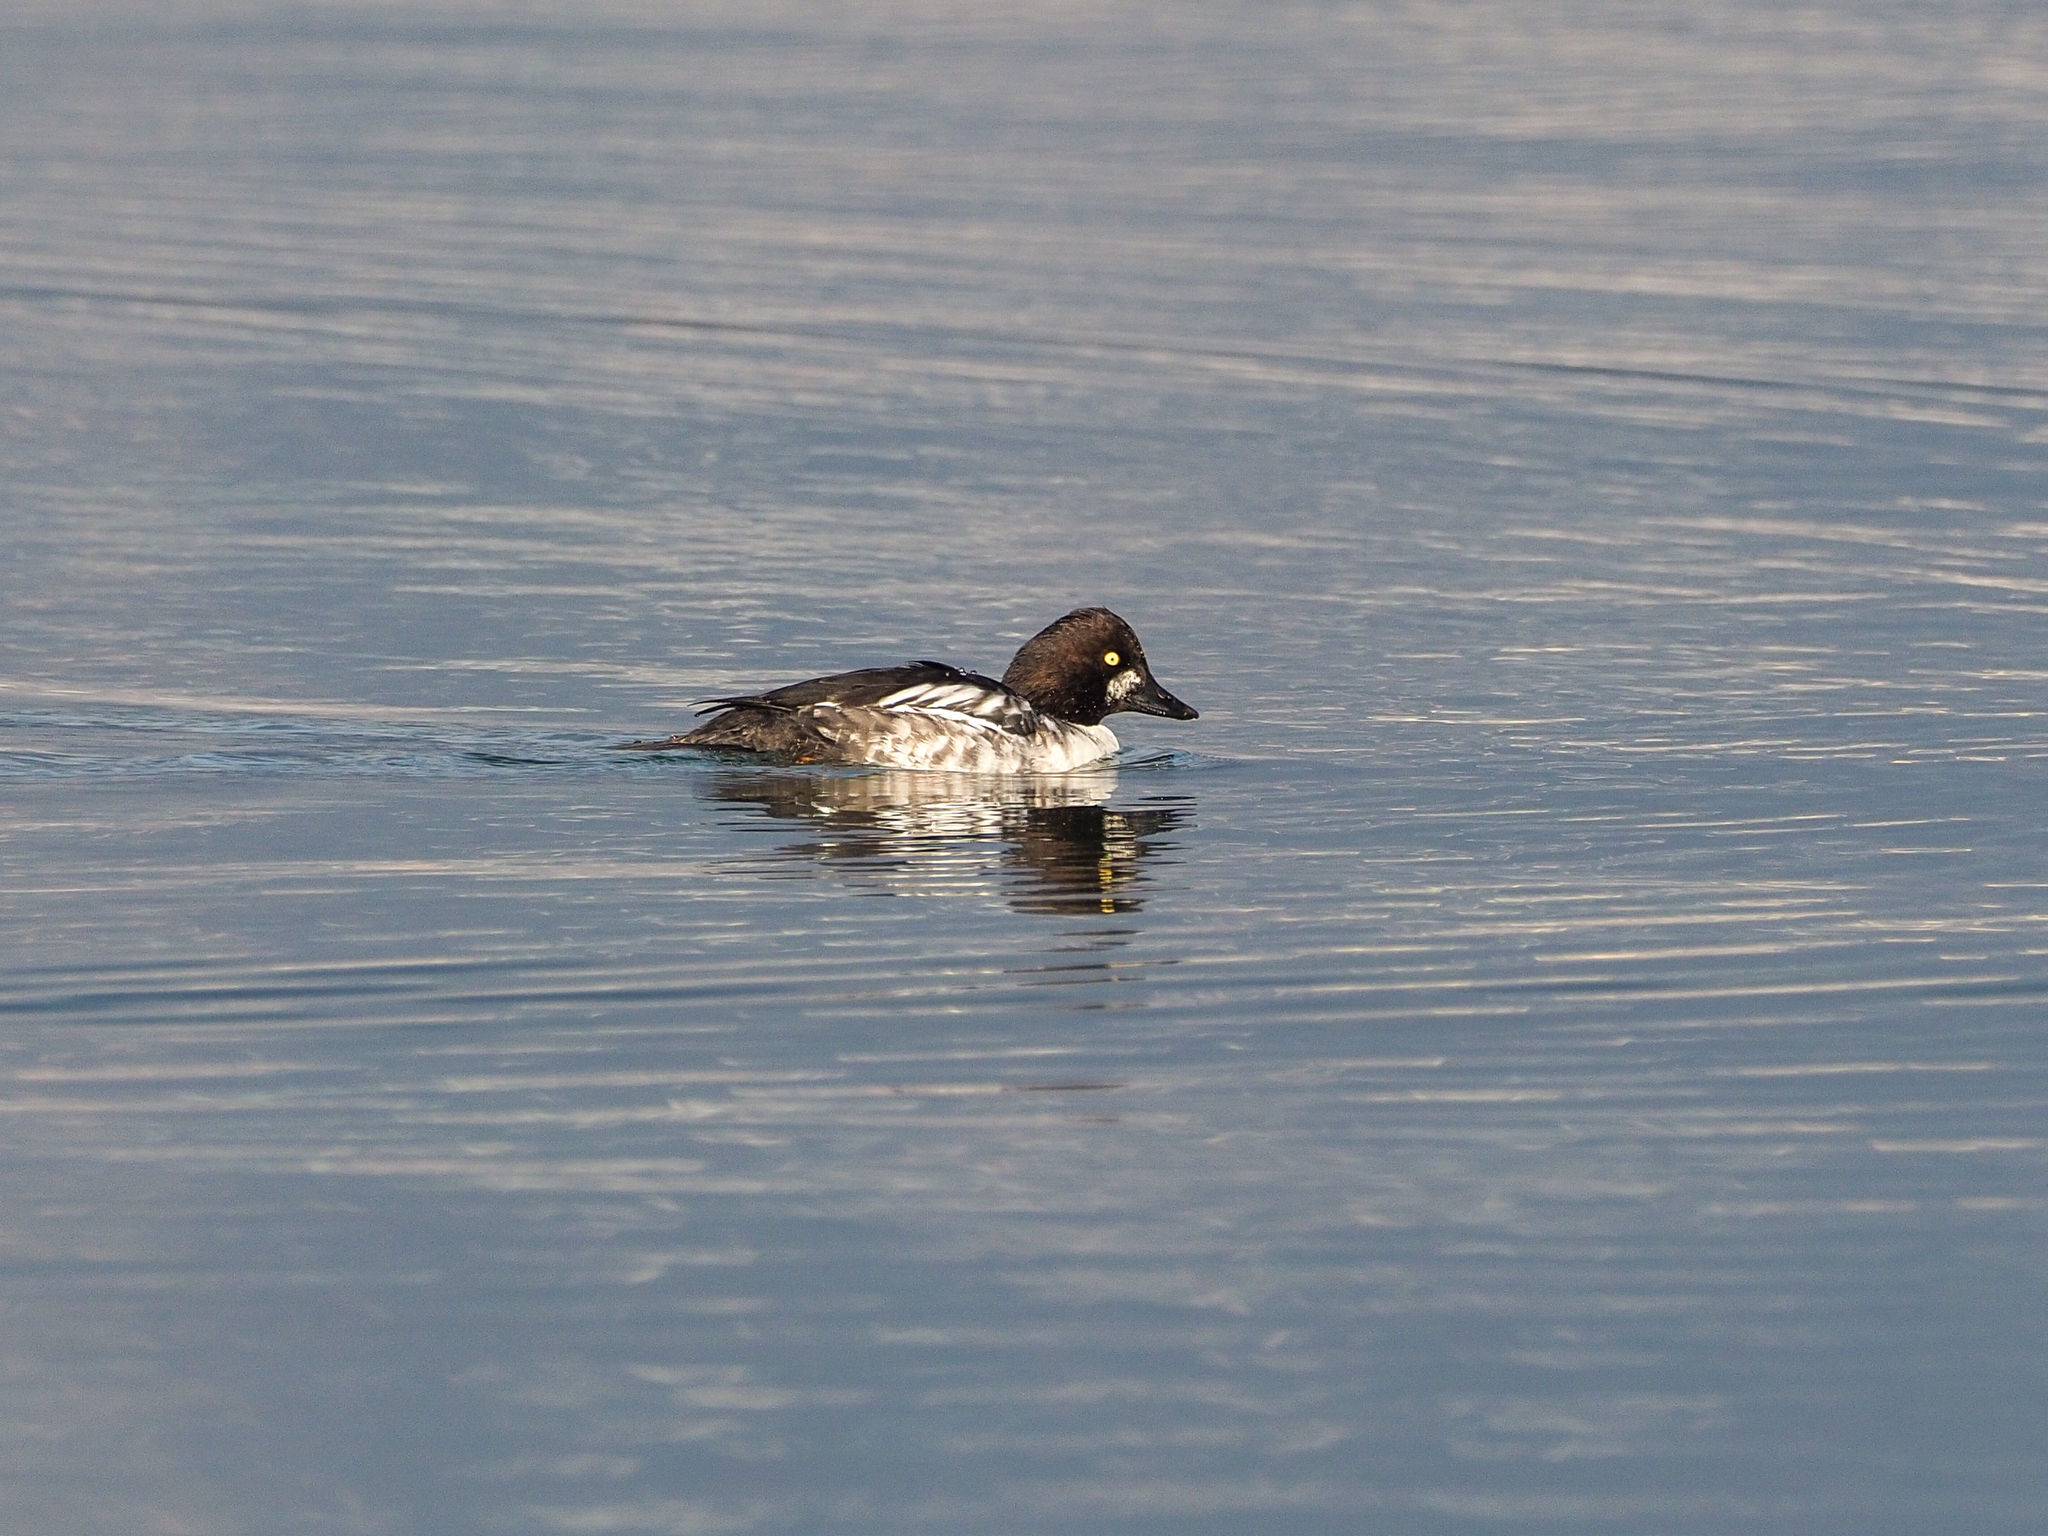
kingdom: Animalia
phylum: Chordata
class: Aves
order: Anseriformes
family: Anatidae
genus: Bucephala
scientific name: Bucephala clangula
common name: Common goldeneye
